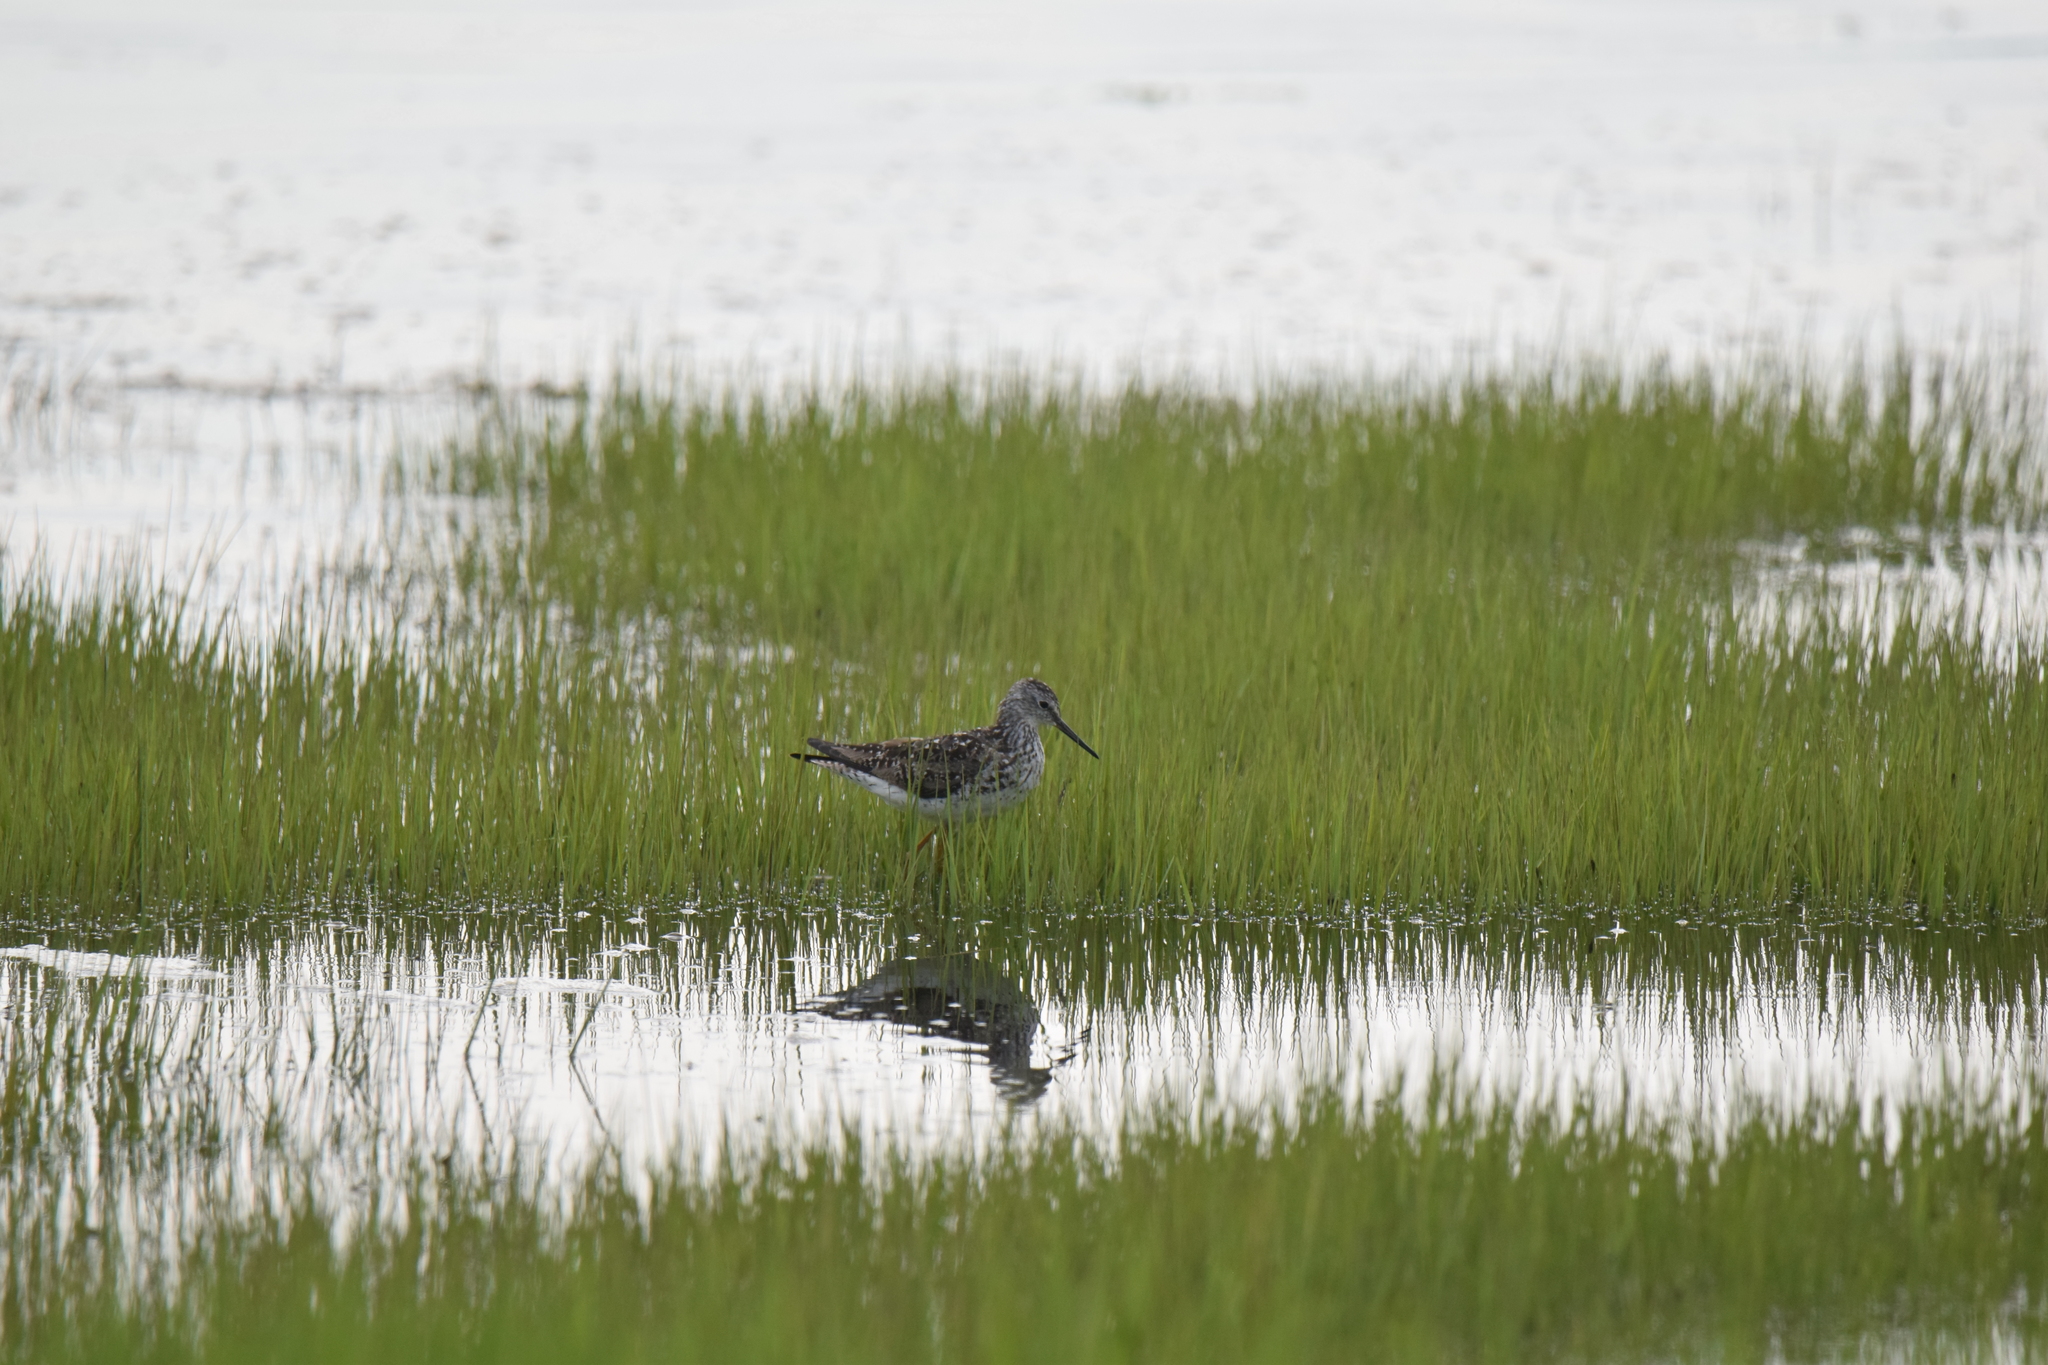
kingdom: Animalia
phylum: Chordata
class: Aves
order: Charadriiformes
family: Scolopacidae
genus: Tringa
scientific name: Tringa flavipes
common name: Lesser yellowlegs
